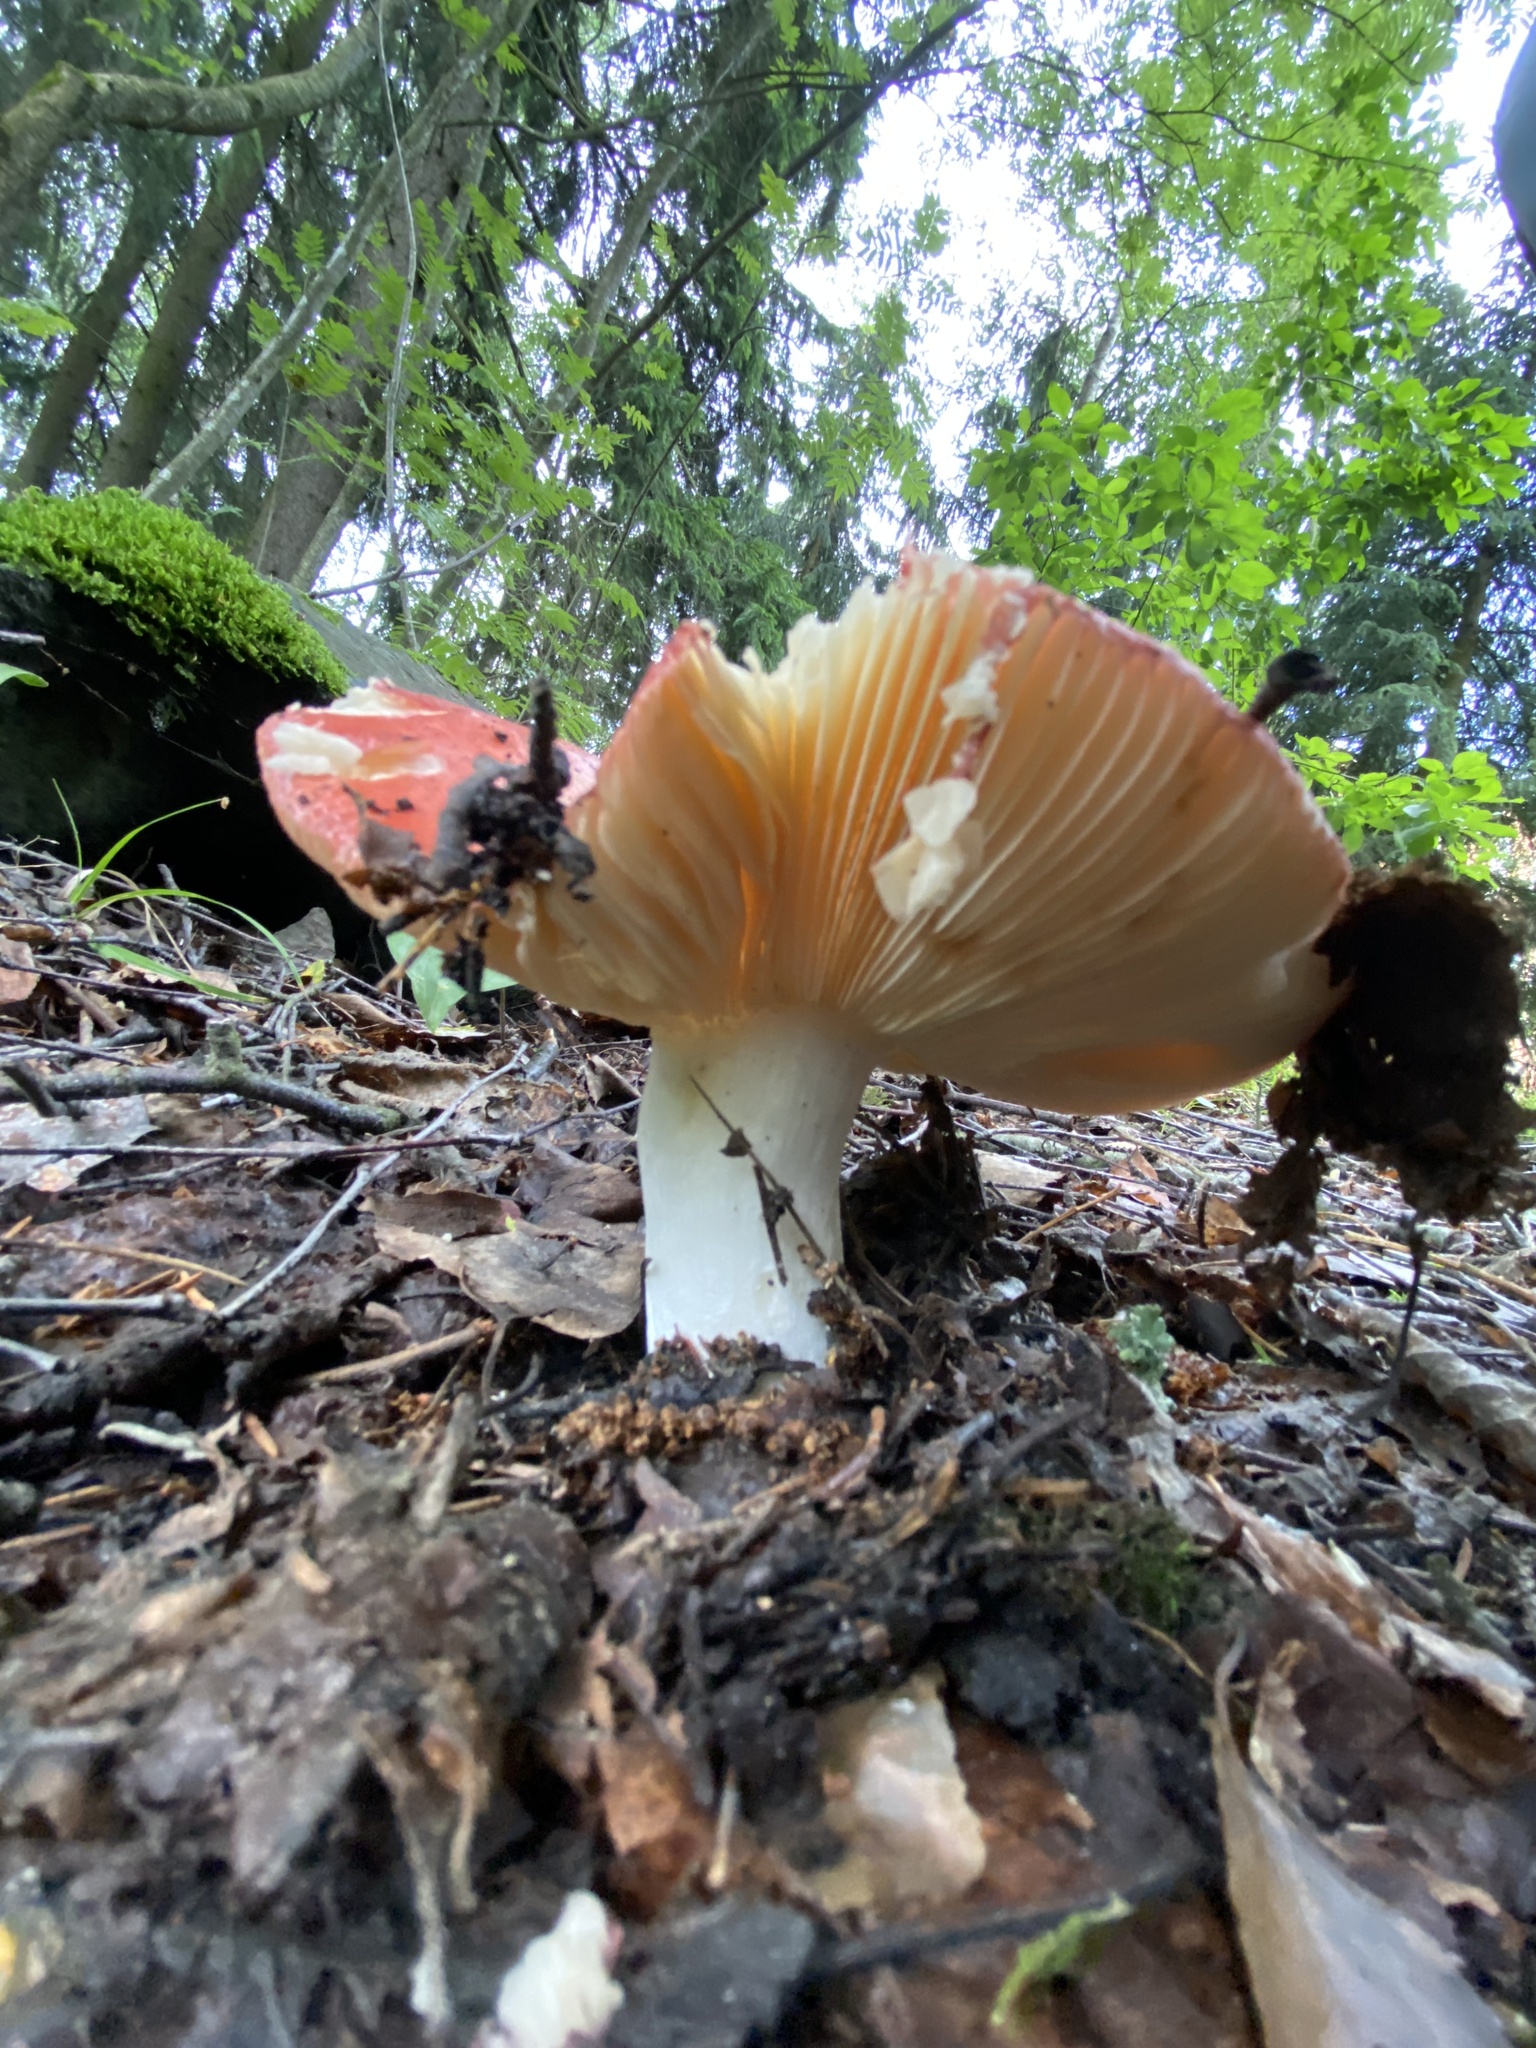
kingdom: Fungi
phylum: Basidiomycota
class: Agaricomycetes
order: Russulales
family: Russulaceae
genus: Russula
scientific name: Russula paludosa
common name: Hintapink
